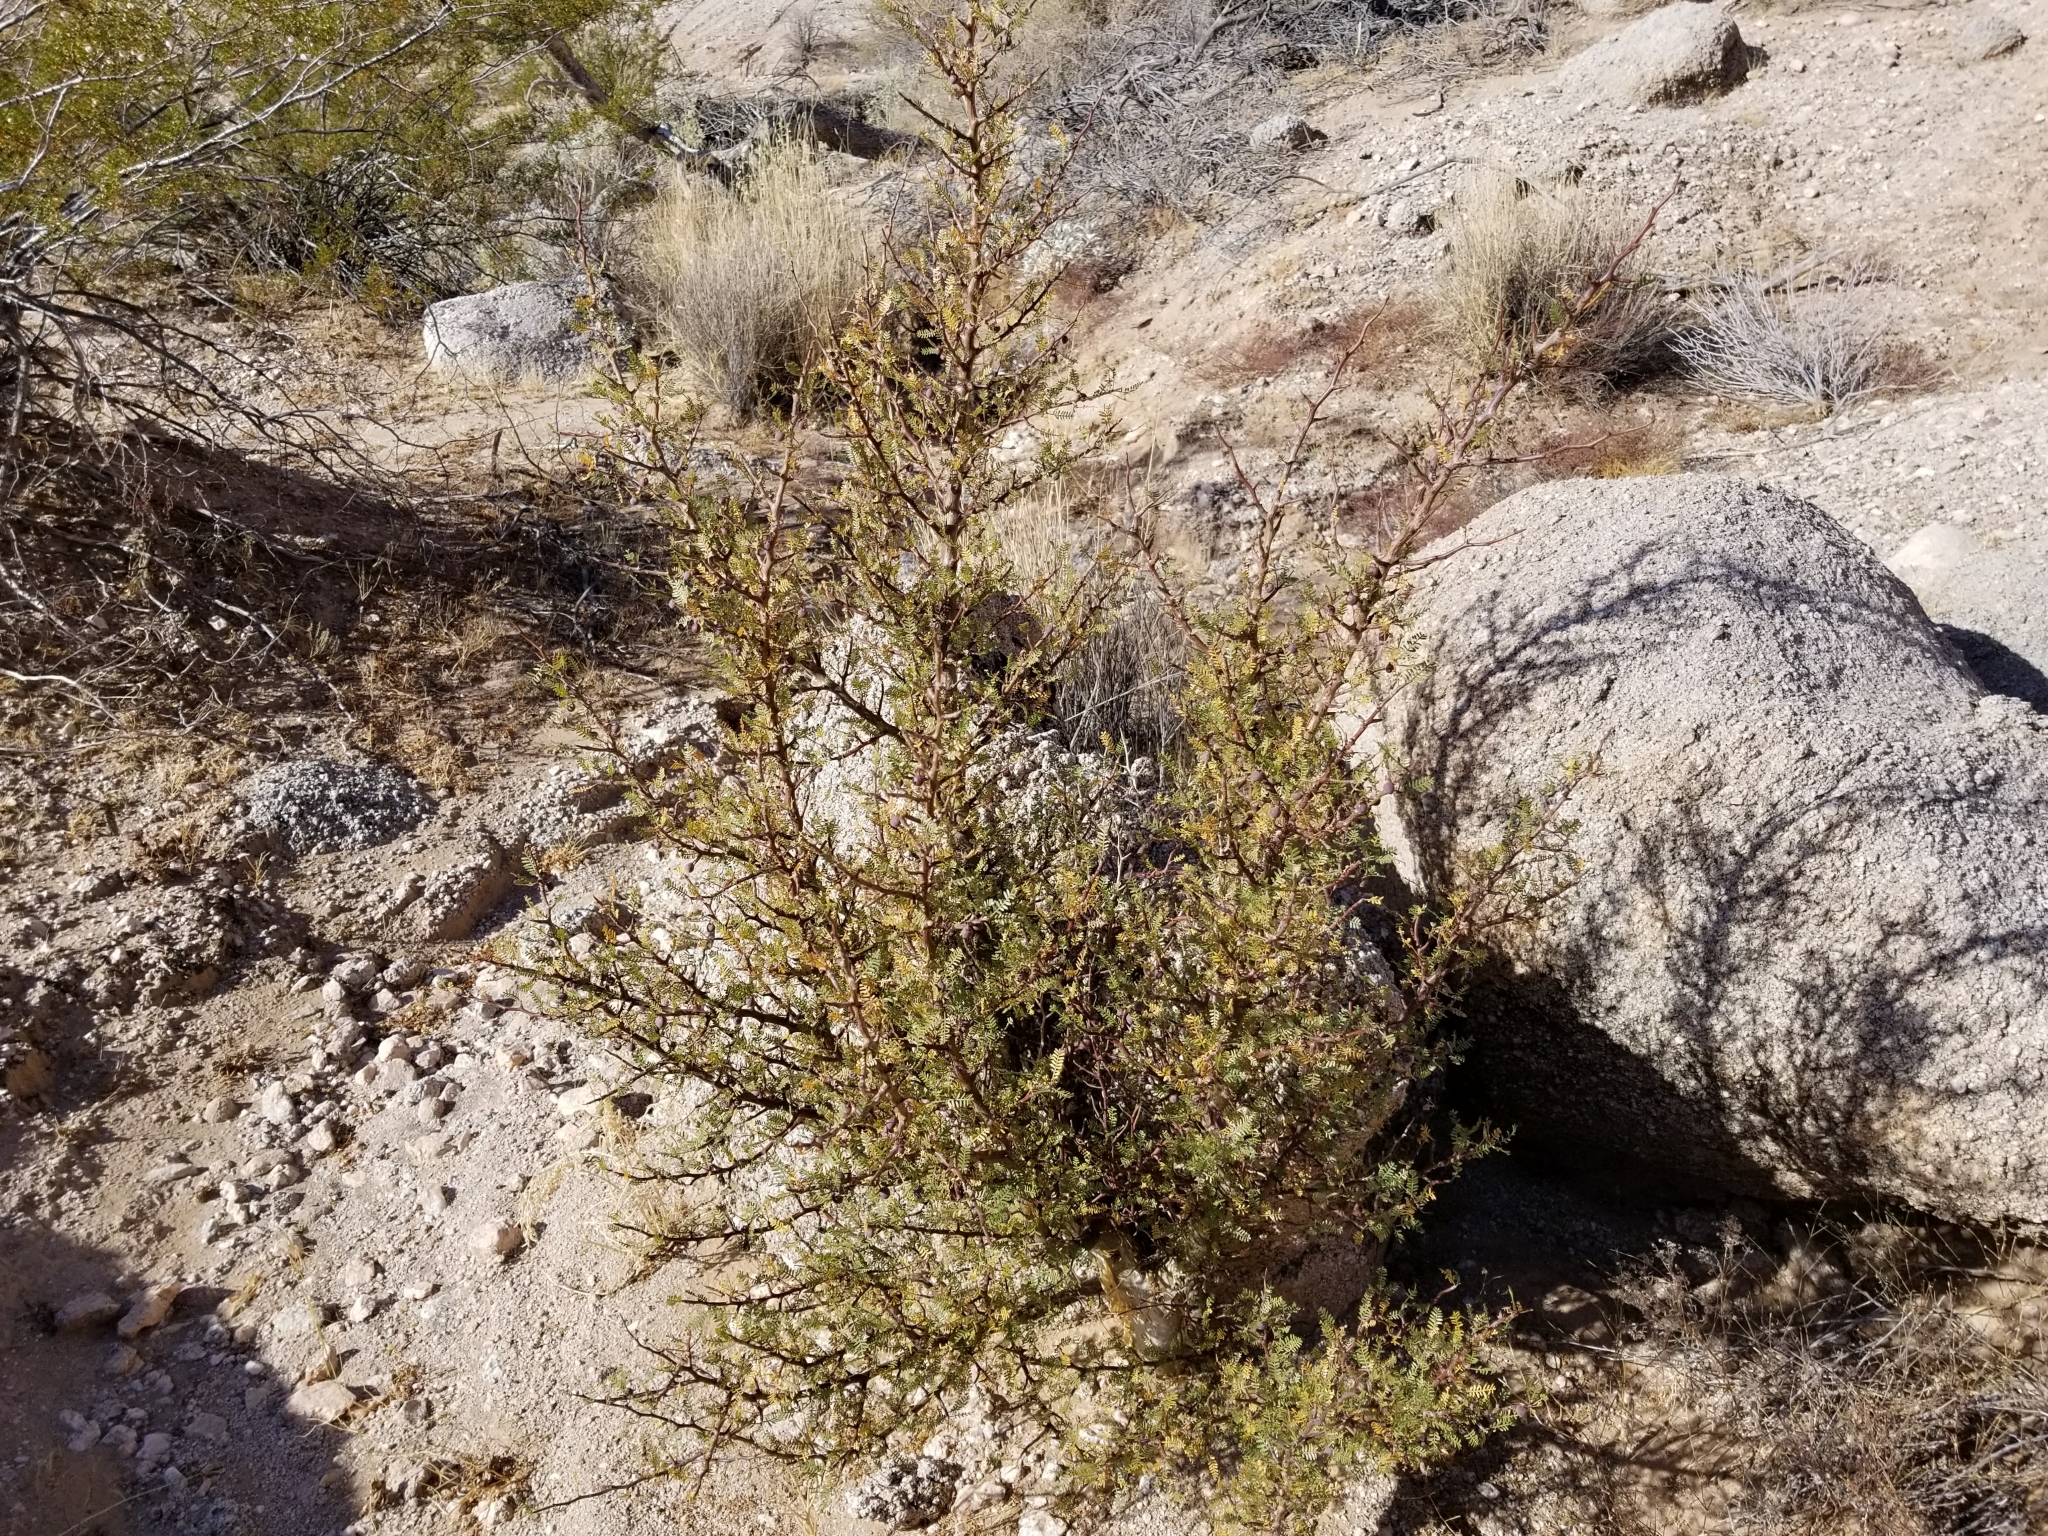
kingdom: Plantae
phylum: Tracheophyta
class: Magnoliopsida
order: Sapindales
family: Burseraceae
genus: Bursera
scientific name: Bursera microphylla
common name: Elephant tree
